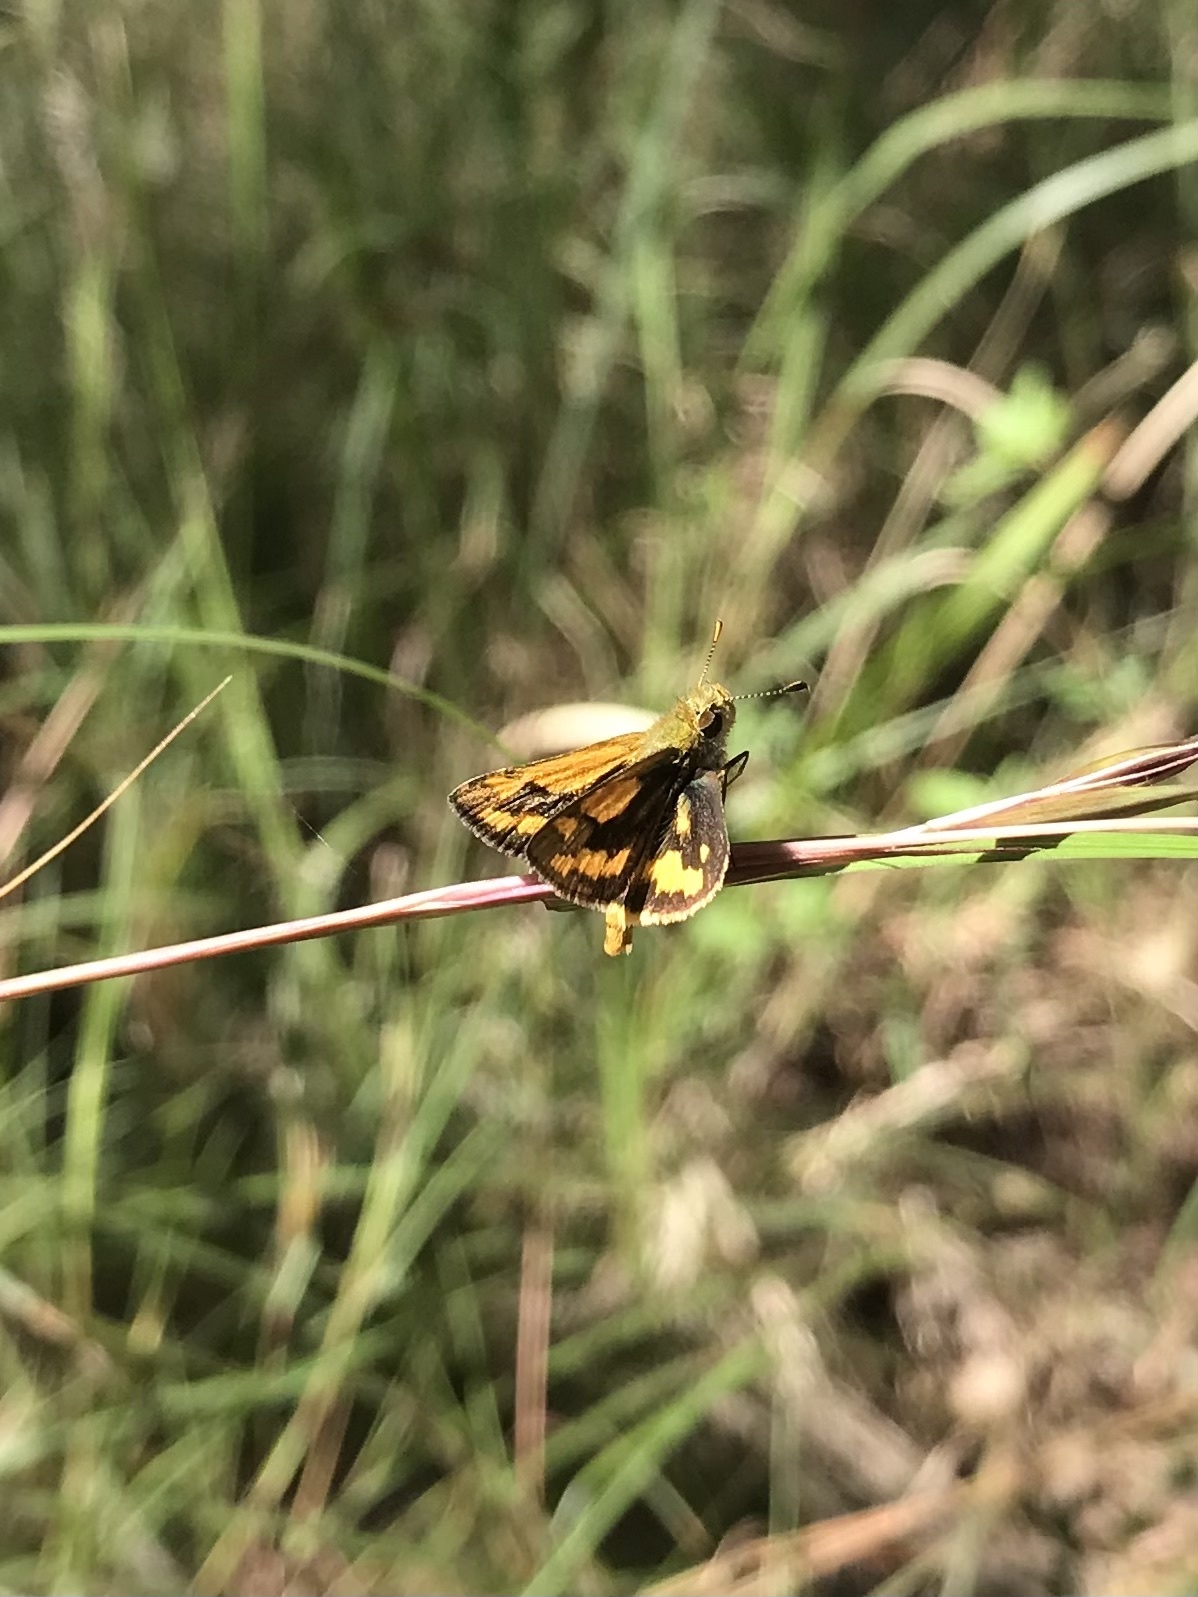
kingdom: Animalia
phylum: Arthropoda
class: Insecta
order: Lepidoptera
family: Hesperiidae
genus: Ocybadistes
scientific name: Ocybadistes walkeri
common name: Yellow-banded dart
